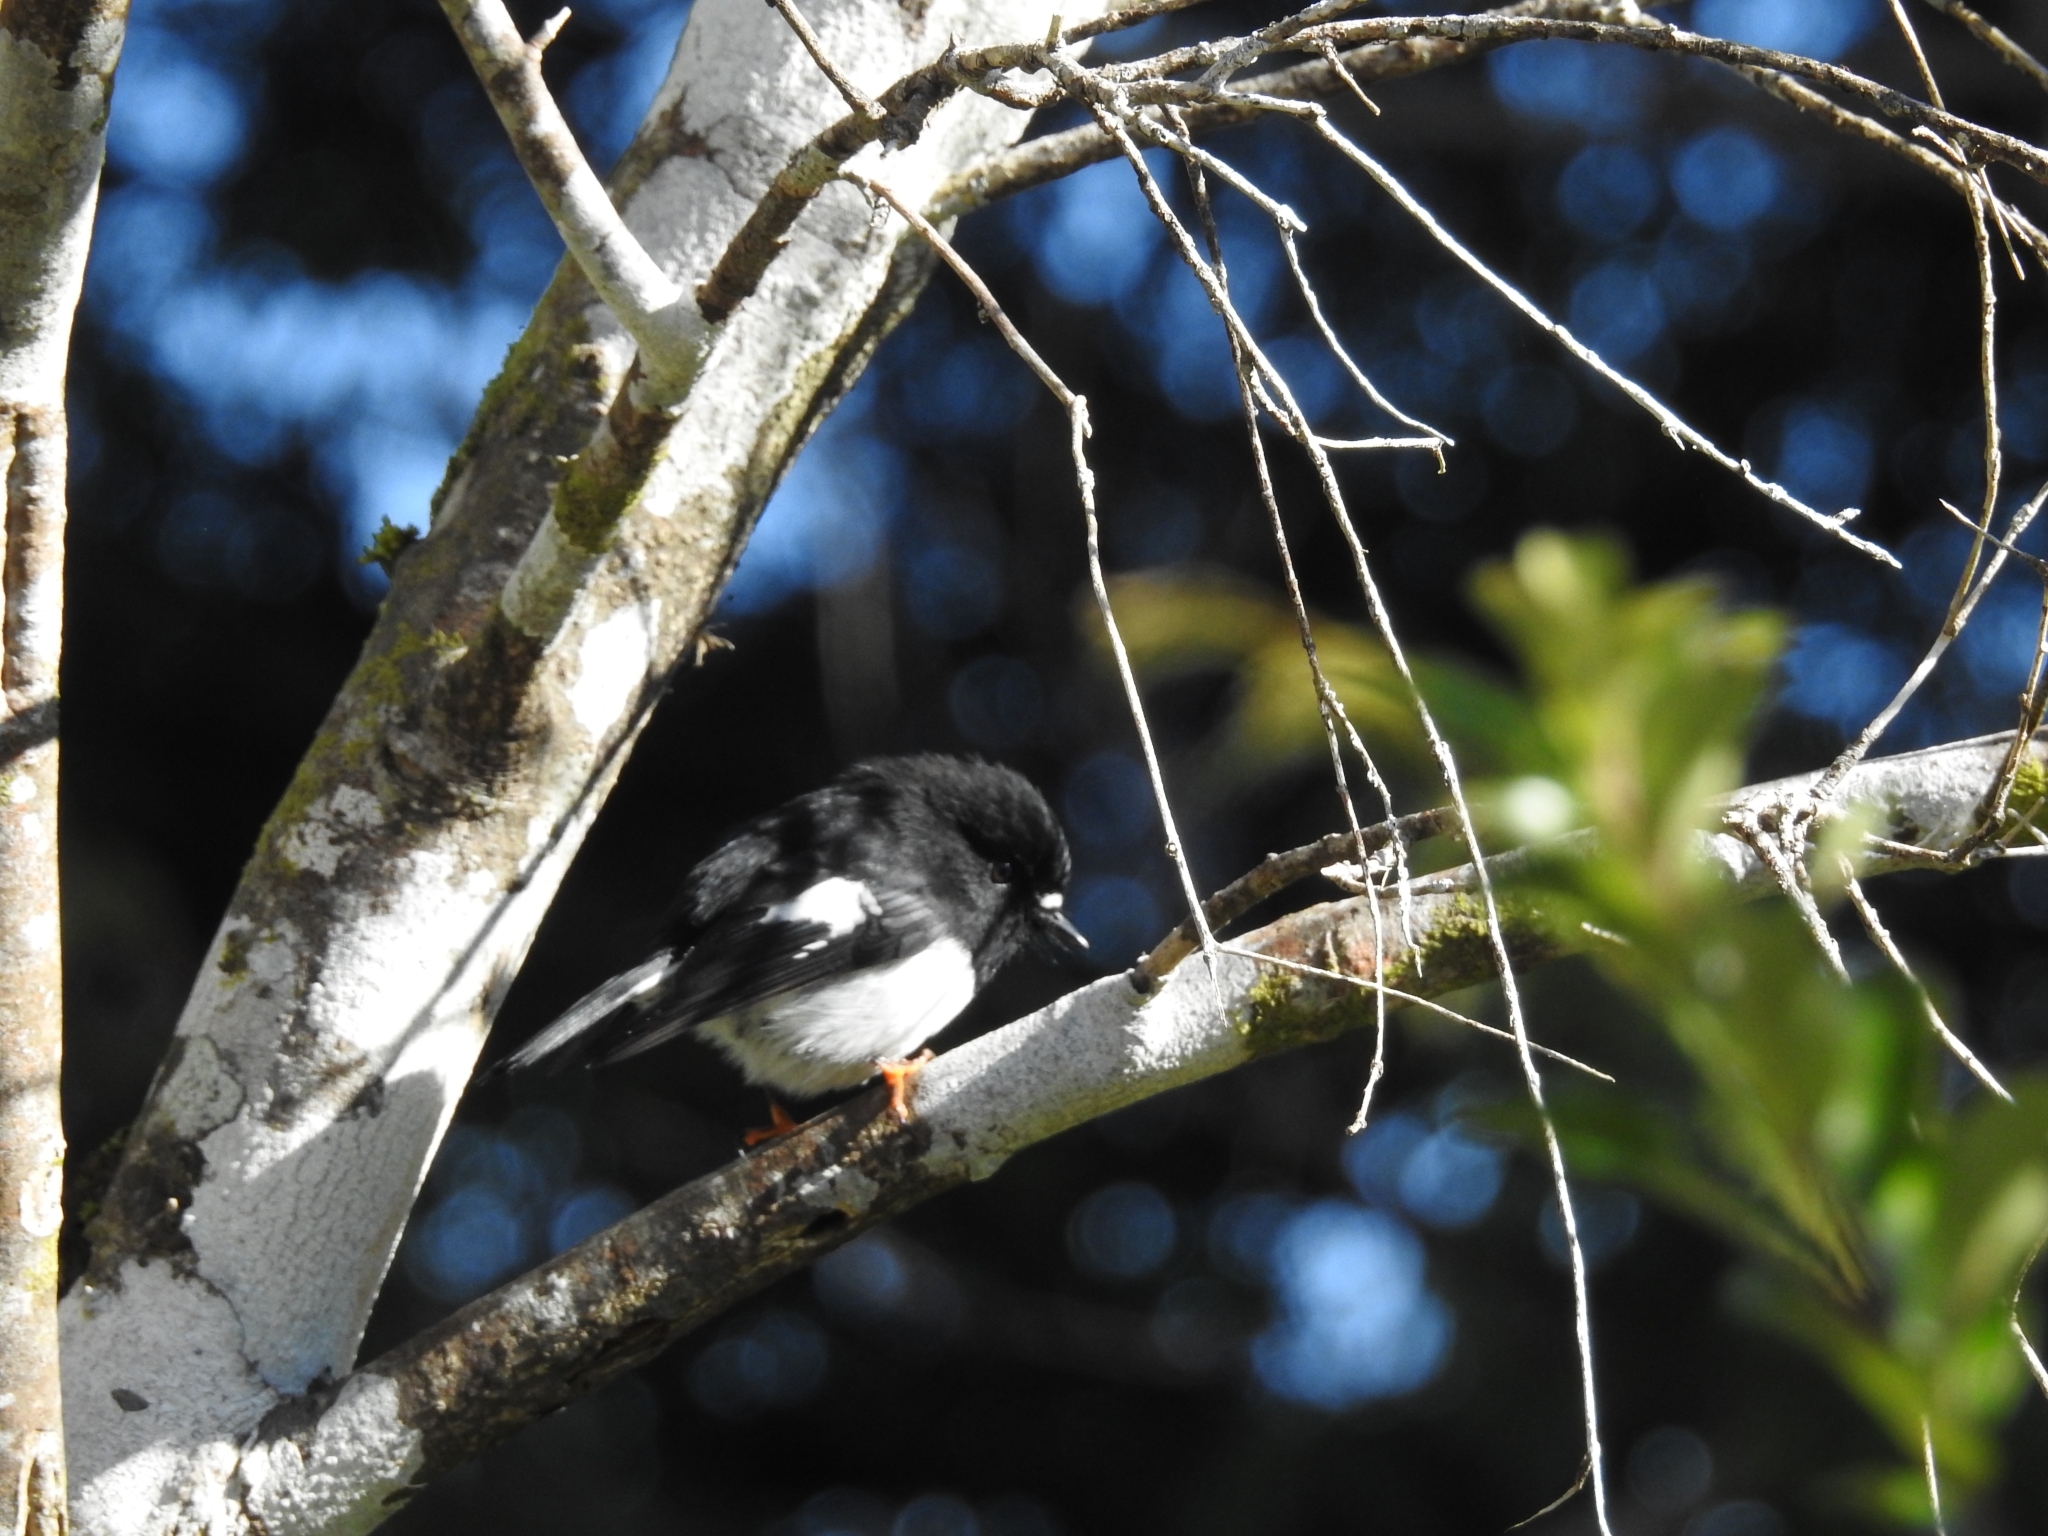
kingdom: Animalia
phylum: Chordata
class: Aves
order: Passeriformes
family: Petroicidae
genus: Petroica
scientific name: Petroica macrocephala
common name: Tomtit
